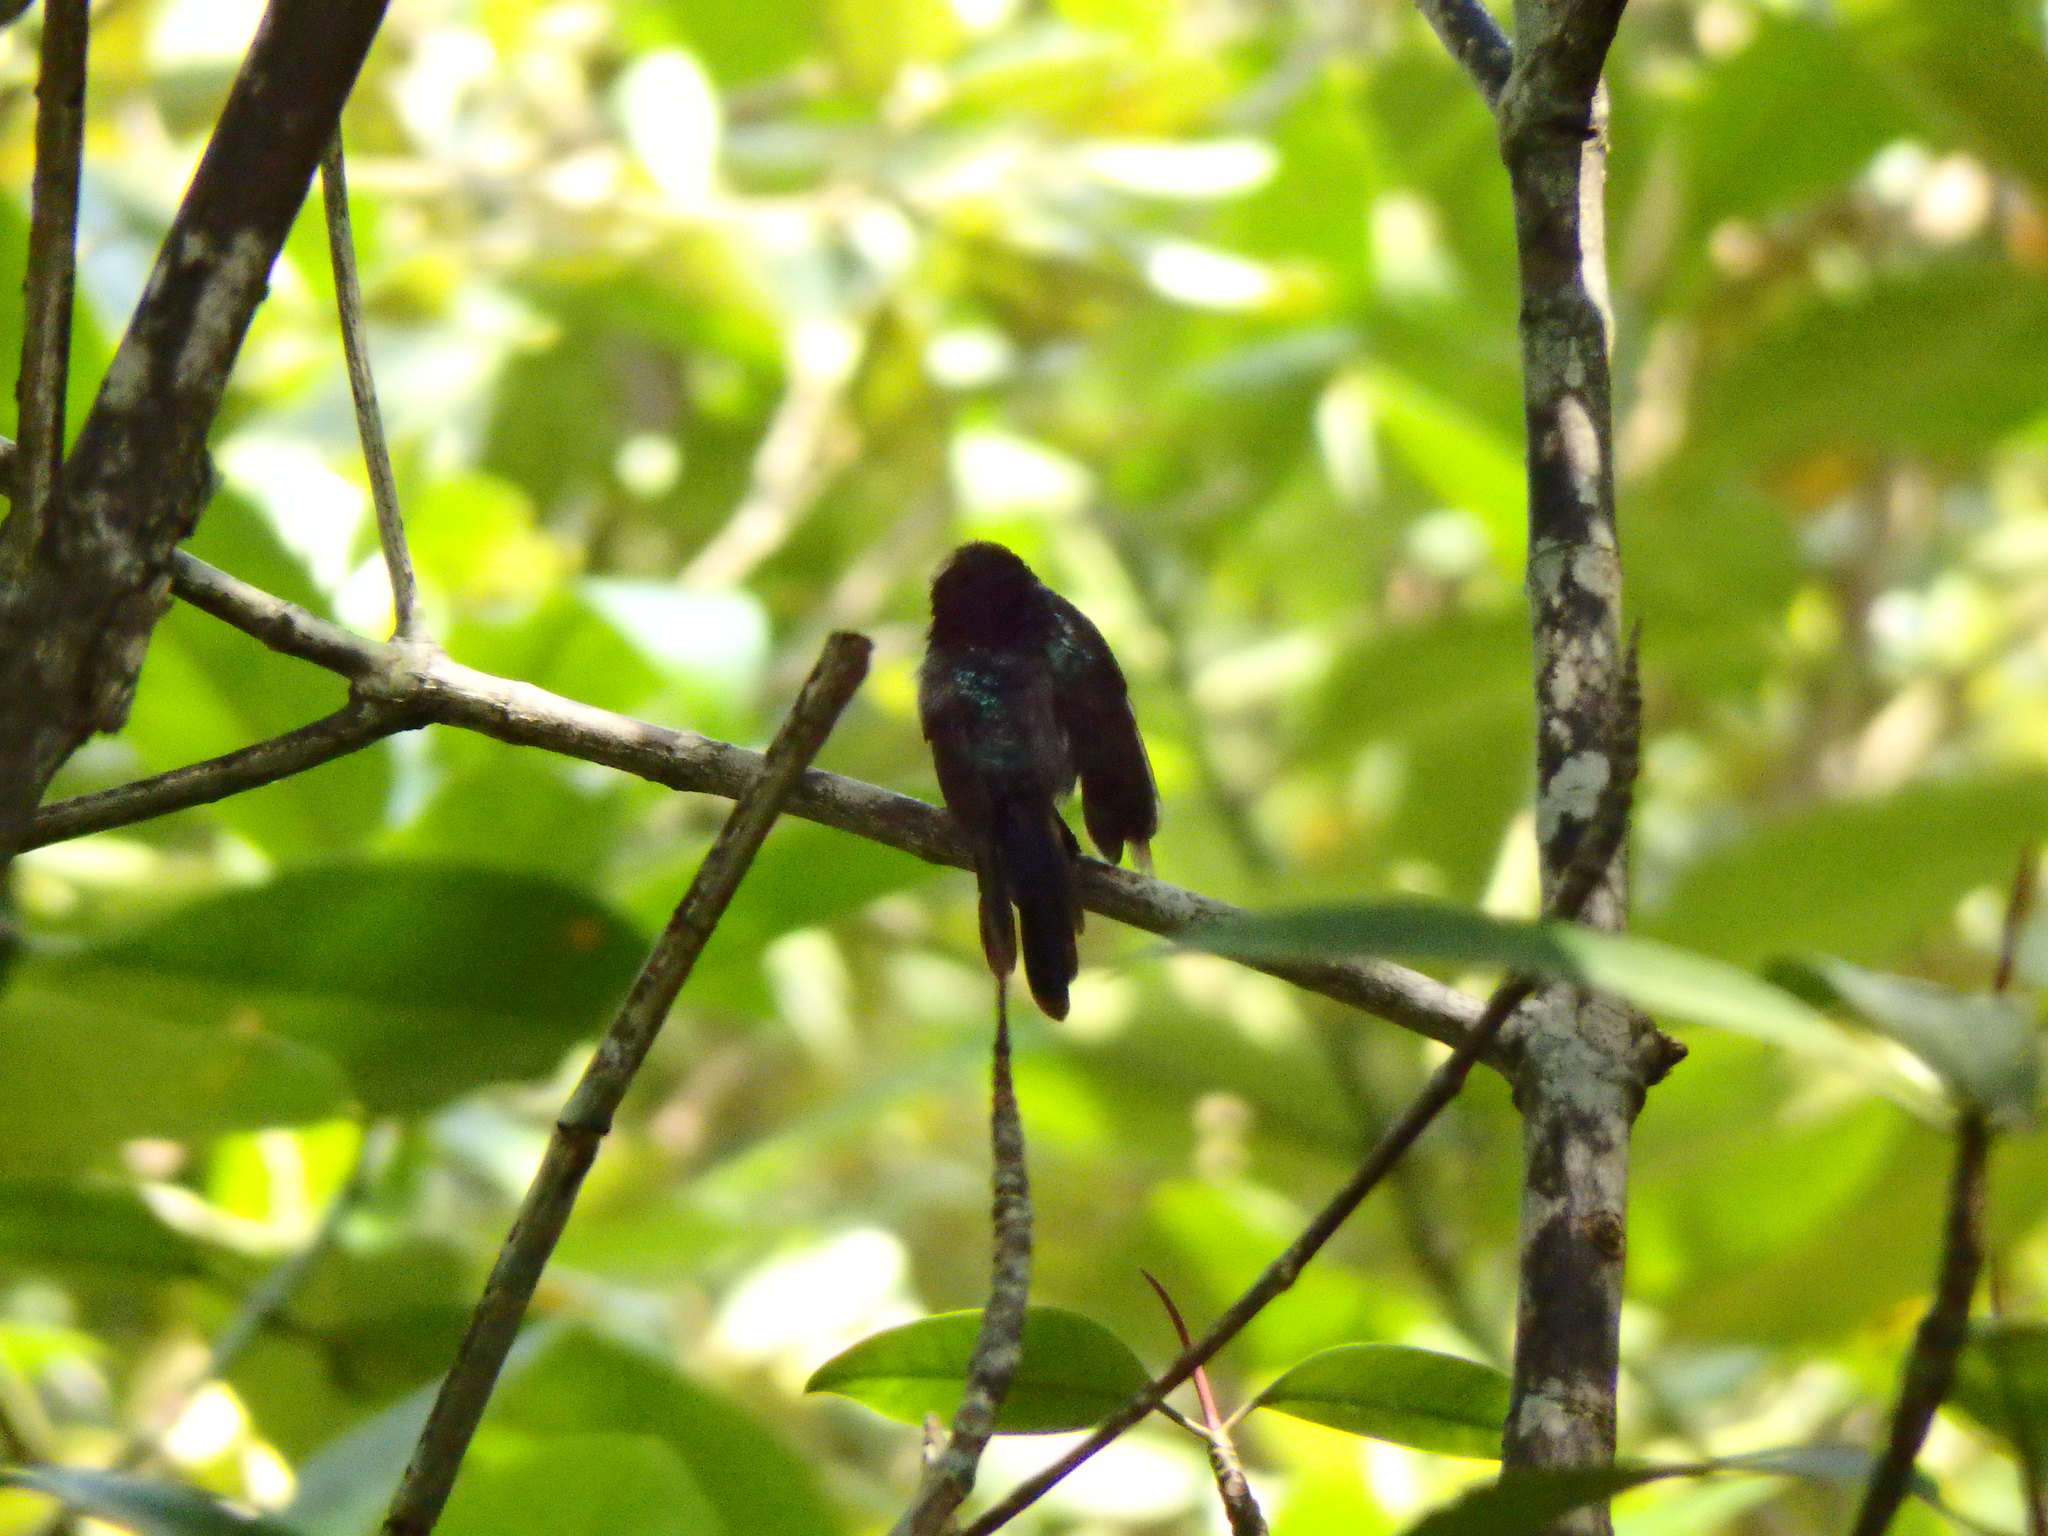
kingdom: Animalia
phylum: Chordata
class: Aves
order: Passeriformes
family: Nectariniidae
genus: Leptocoma
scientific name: Leptocoma calcostetha
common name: Copper-throated sunbird
